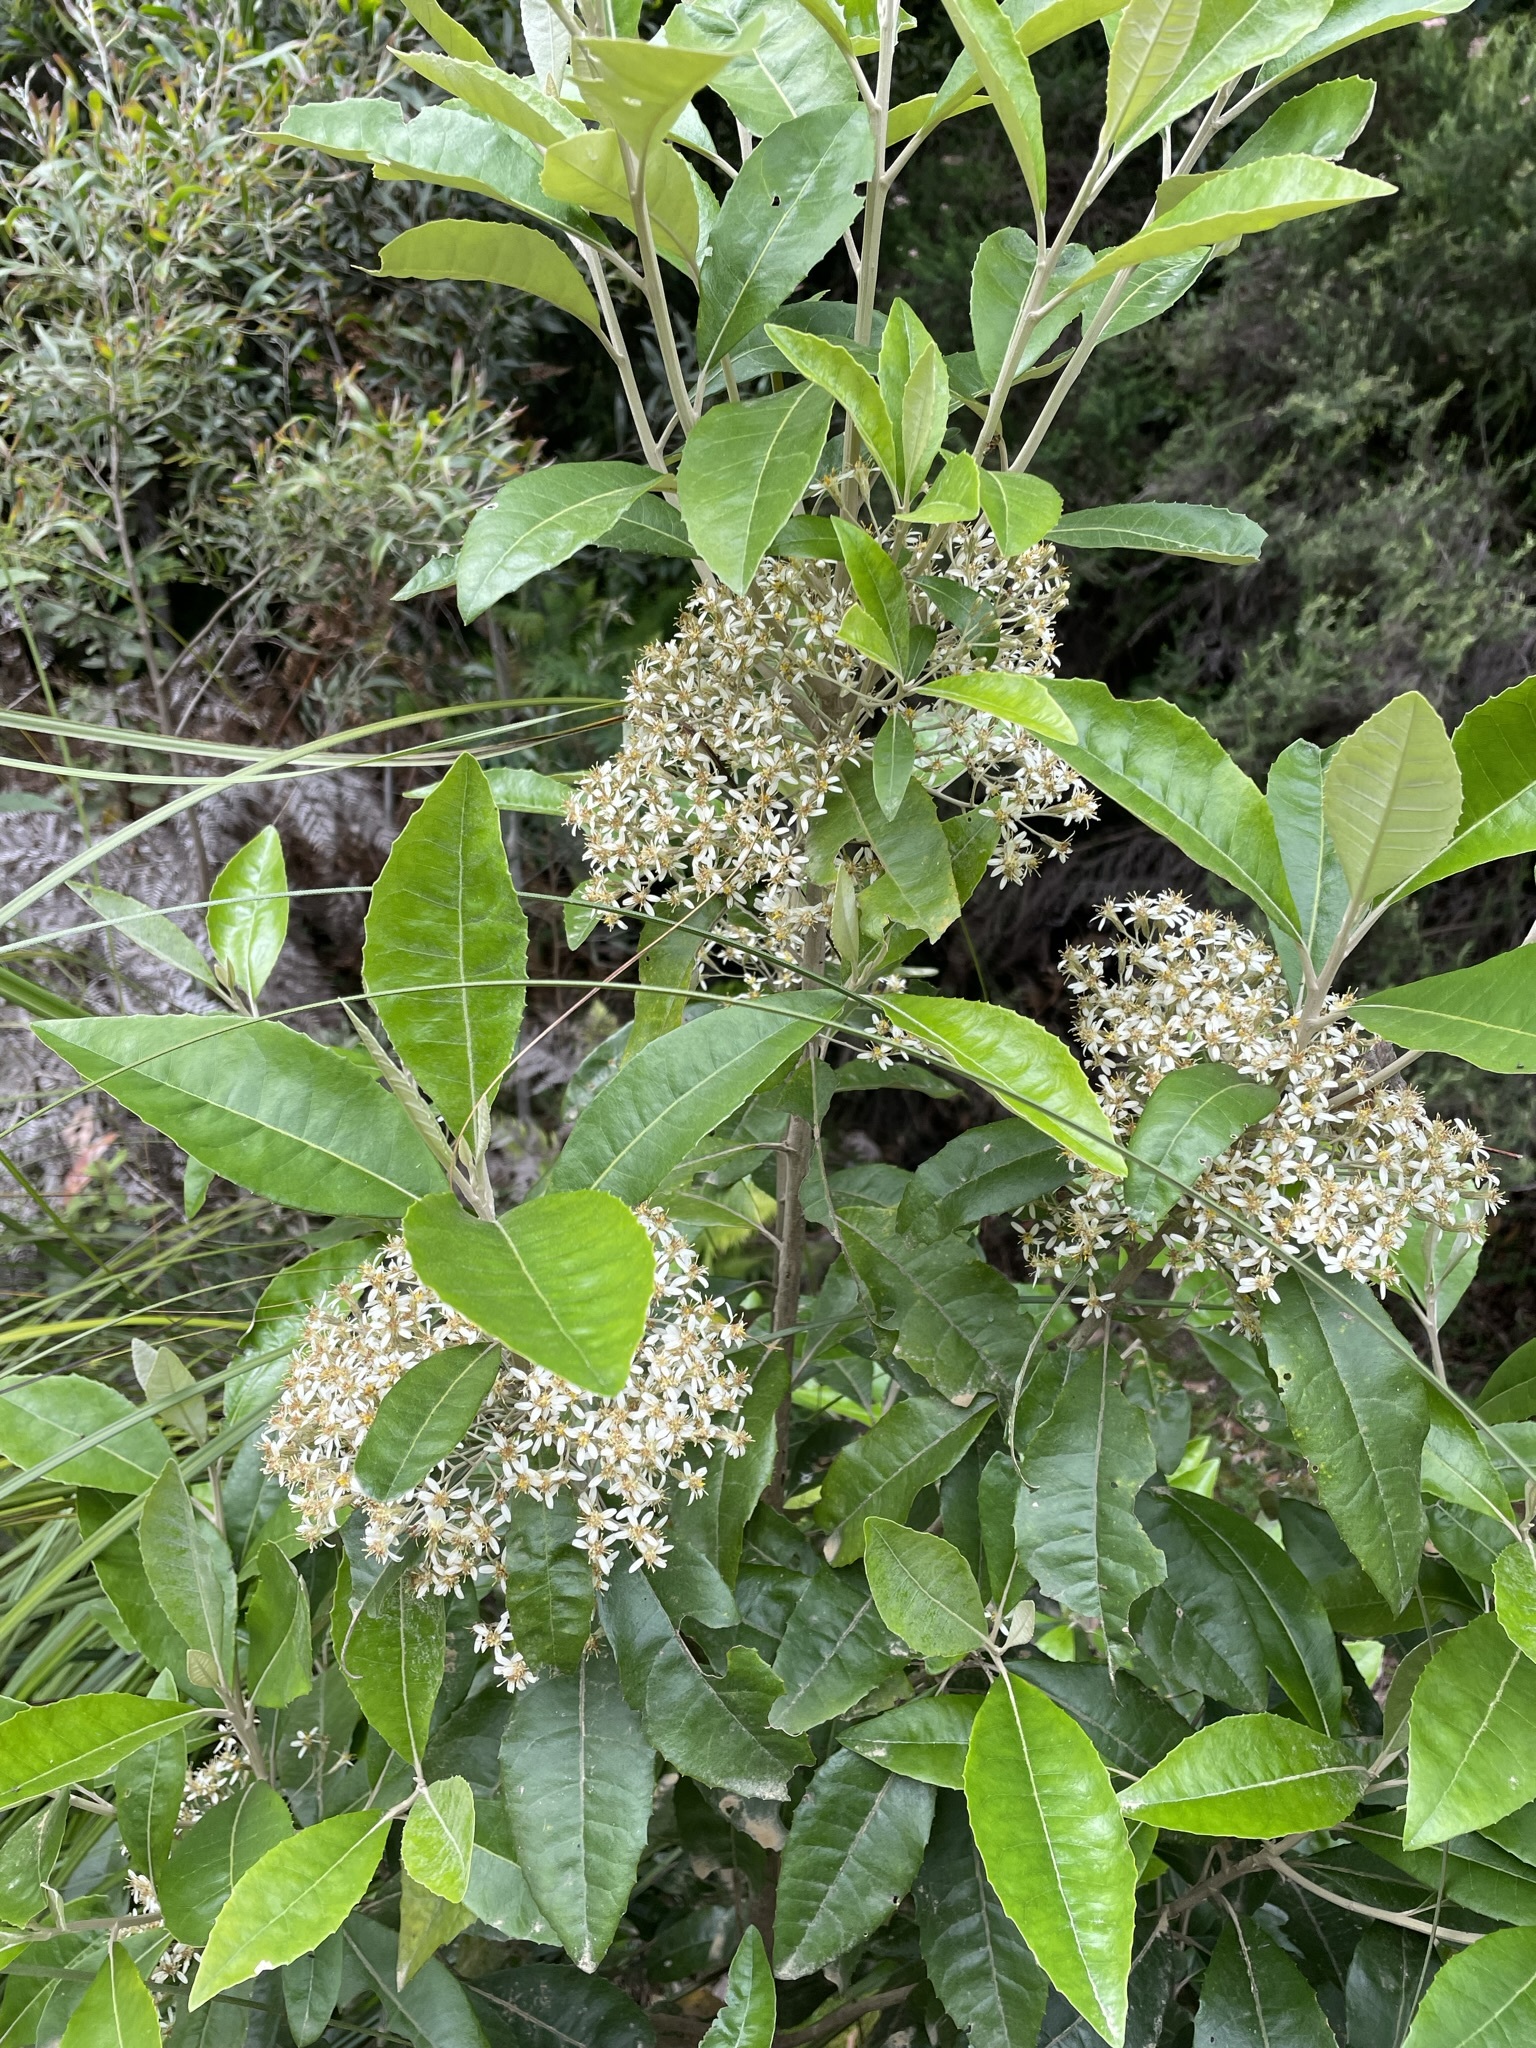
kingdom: Plantae
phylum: Tracheophyta
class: Magnoliopsida
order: Asterales
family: Asteraceae
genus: Olearia
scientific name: Olearia argophylla
